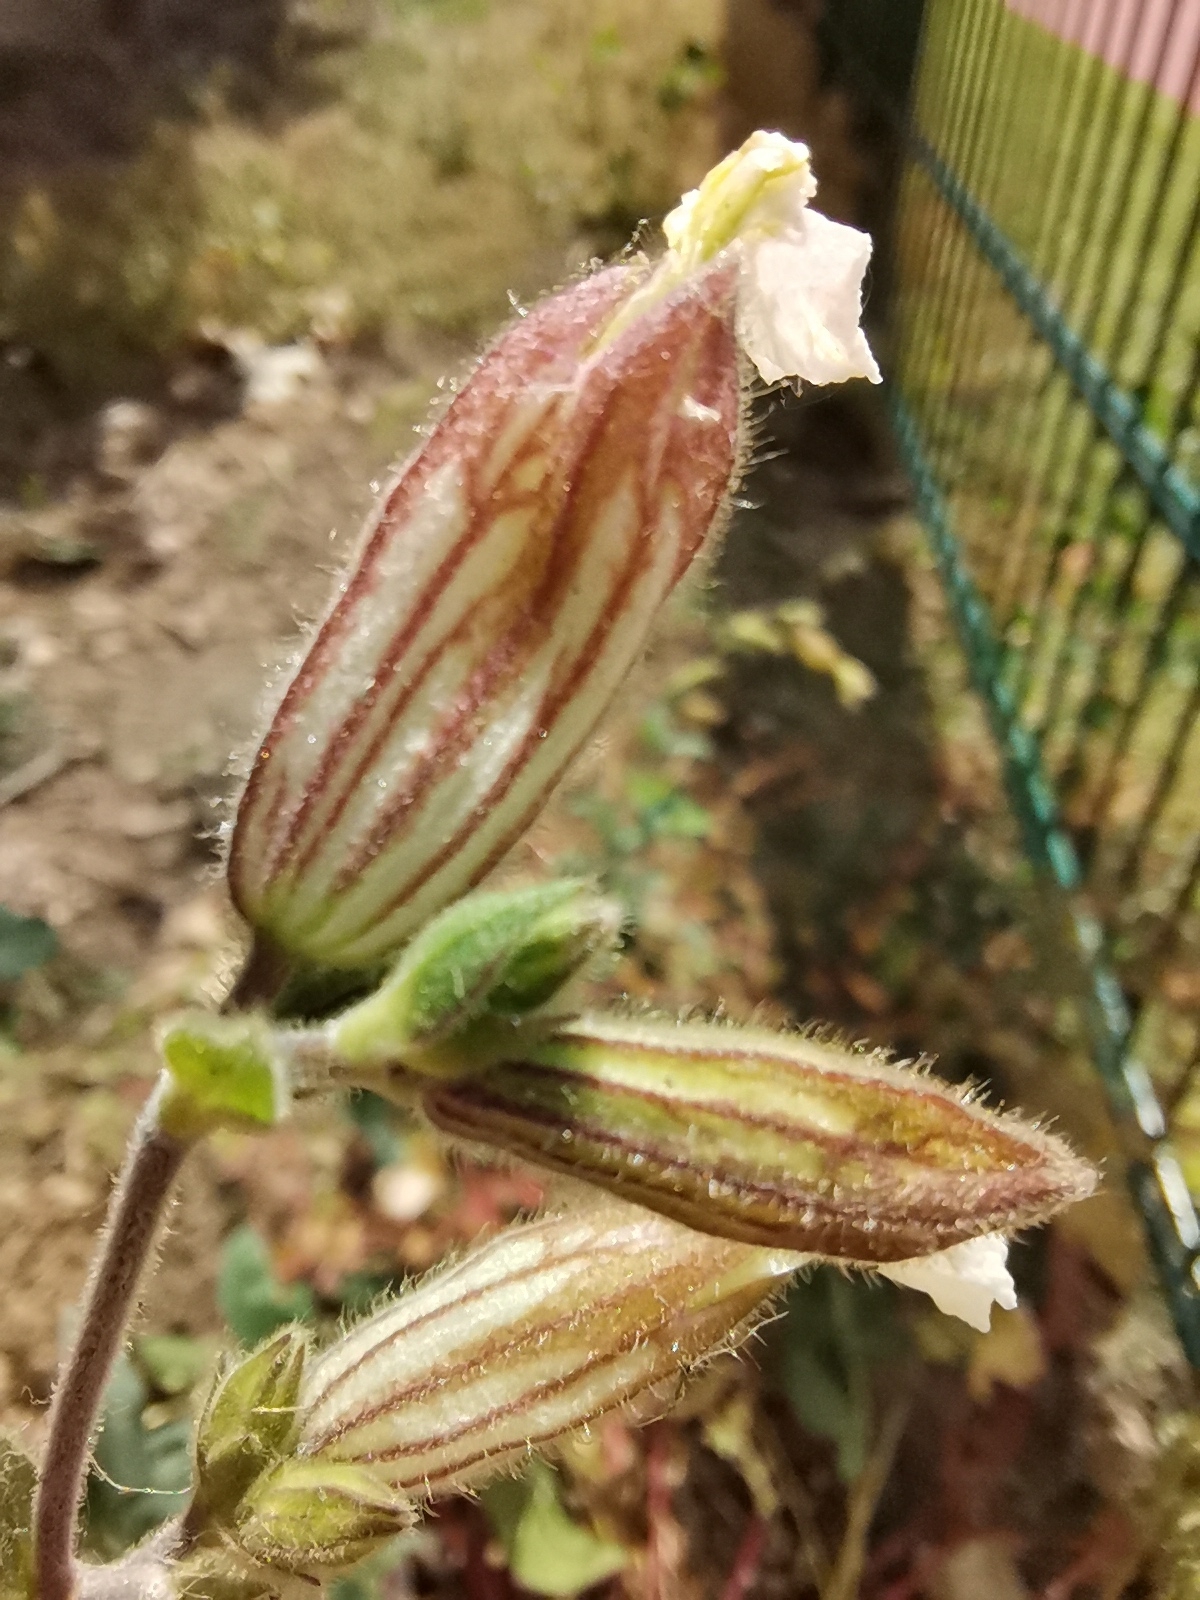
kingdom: Plantae
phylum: Tracheophyta
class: Magnoliopsida
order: Caryophyllales
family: Caryophyllaceae
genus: Silene
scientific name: Silene latifolia
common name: White campion
